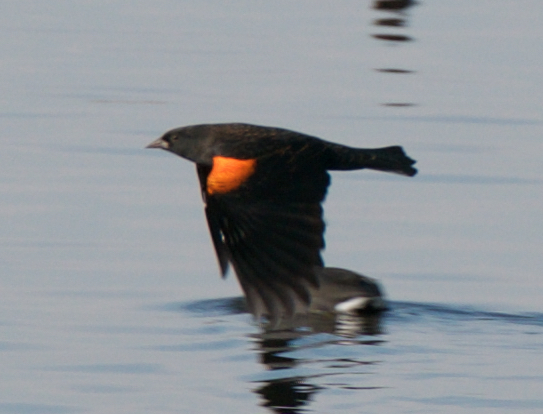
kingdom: Animalia
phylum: Chordata
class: Aves
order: Passeriformes
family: Icteridae
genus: Agelaius
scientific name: Agelaius phoeniceus
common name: Red-winged blackbird
